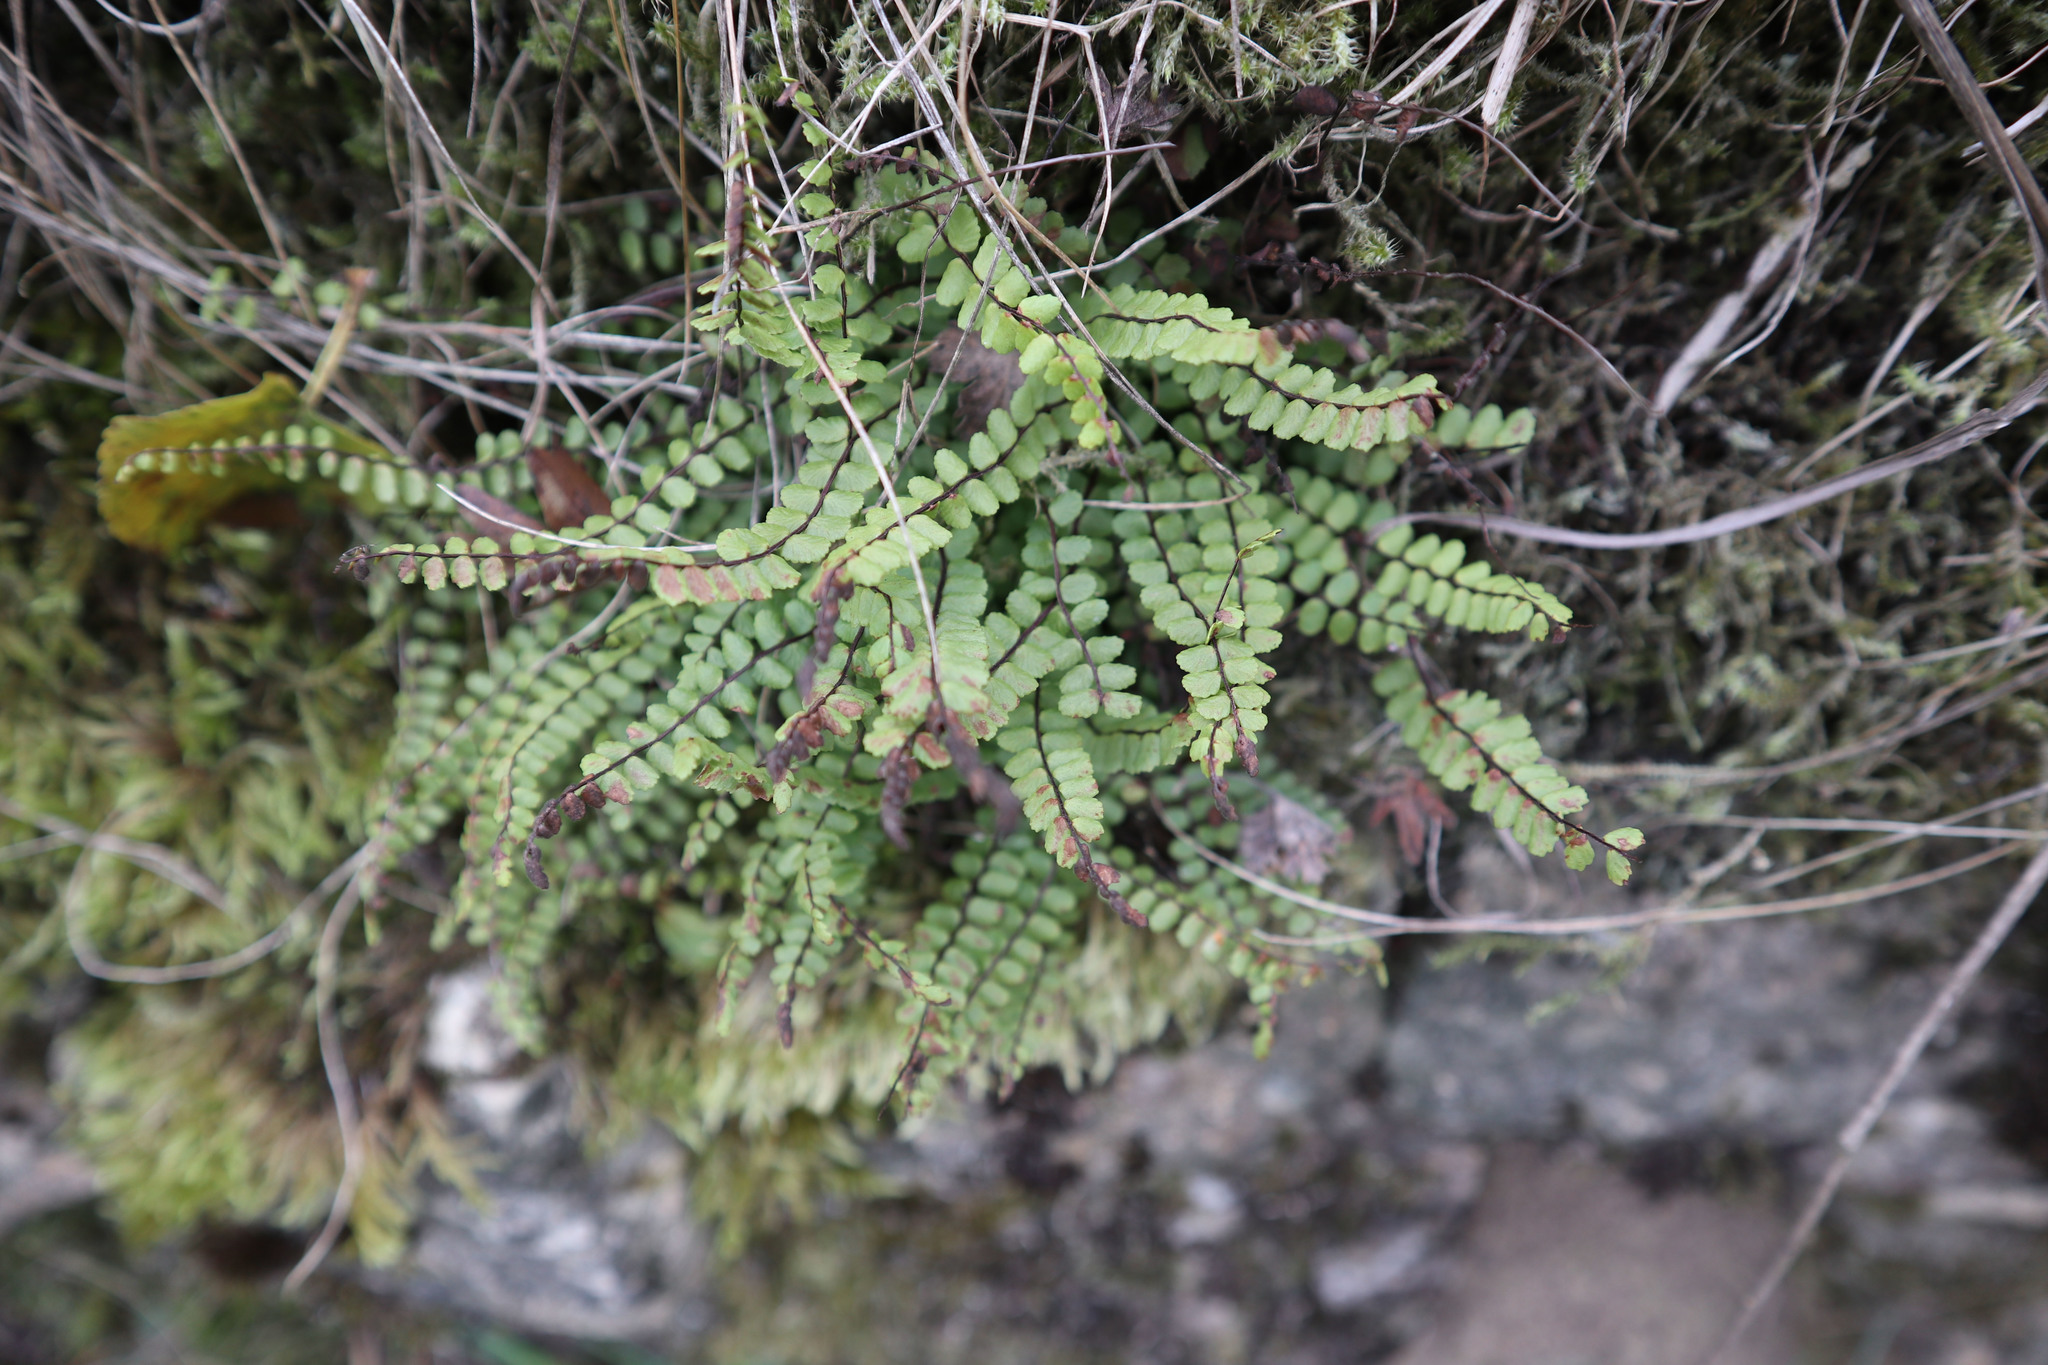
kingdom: Plantae
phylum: Tracheophyta
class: Polypodiopsida
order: Polypodiales
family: Aspleniaceae
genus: Asplenium
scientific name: Asplenium trichomanes
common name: Maidenhair spleenwort
